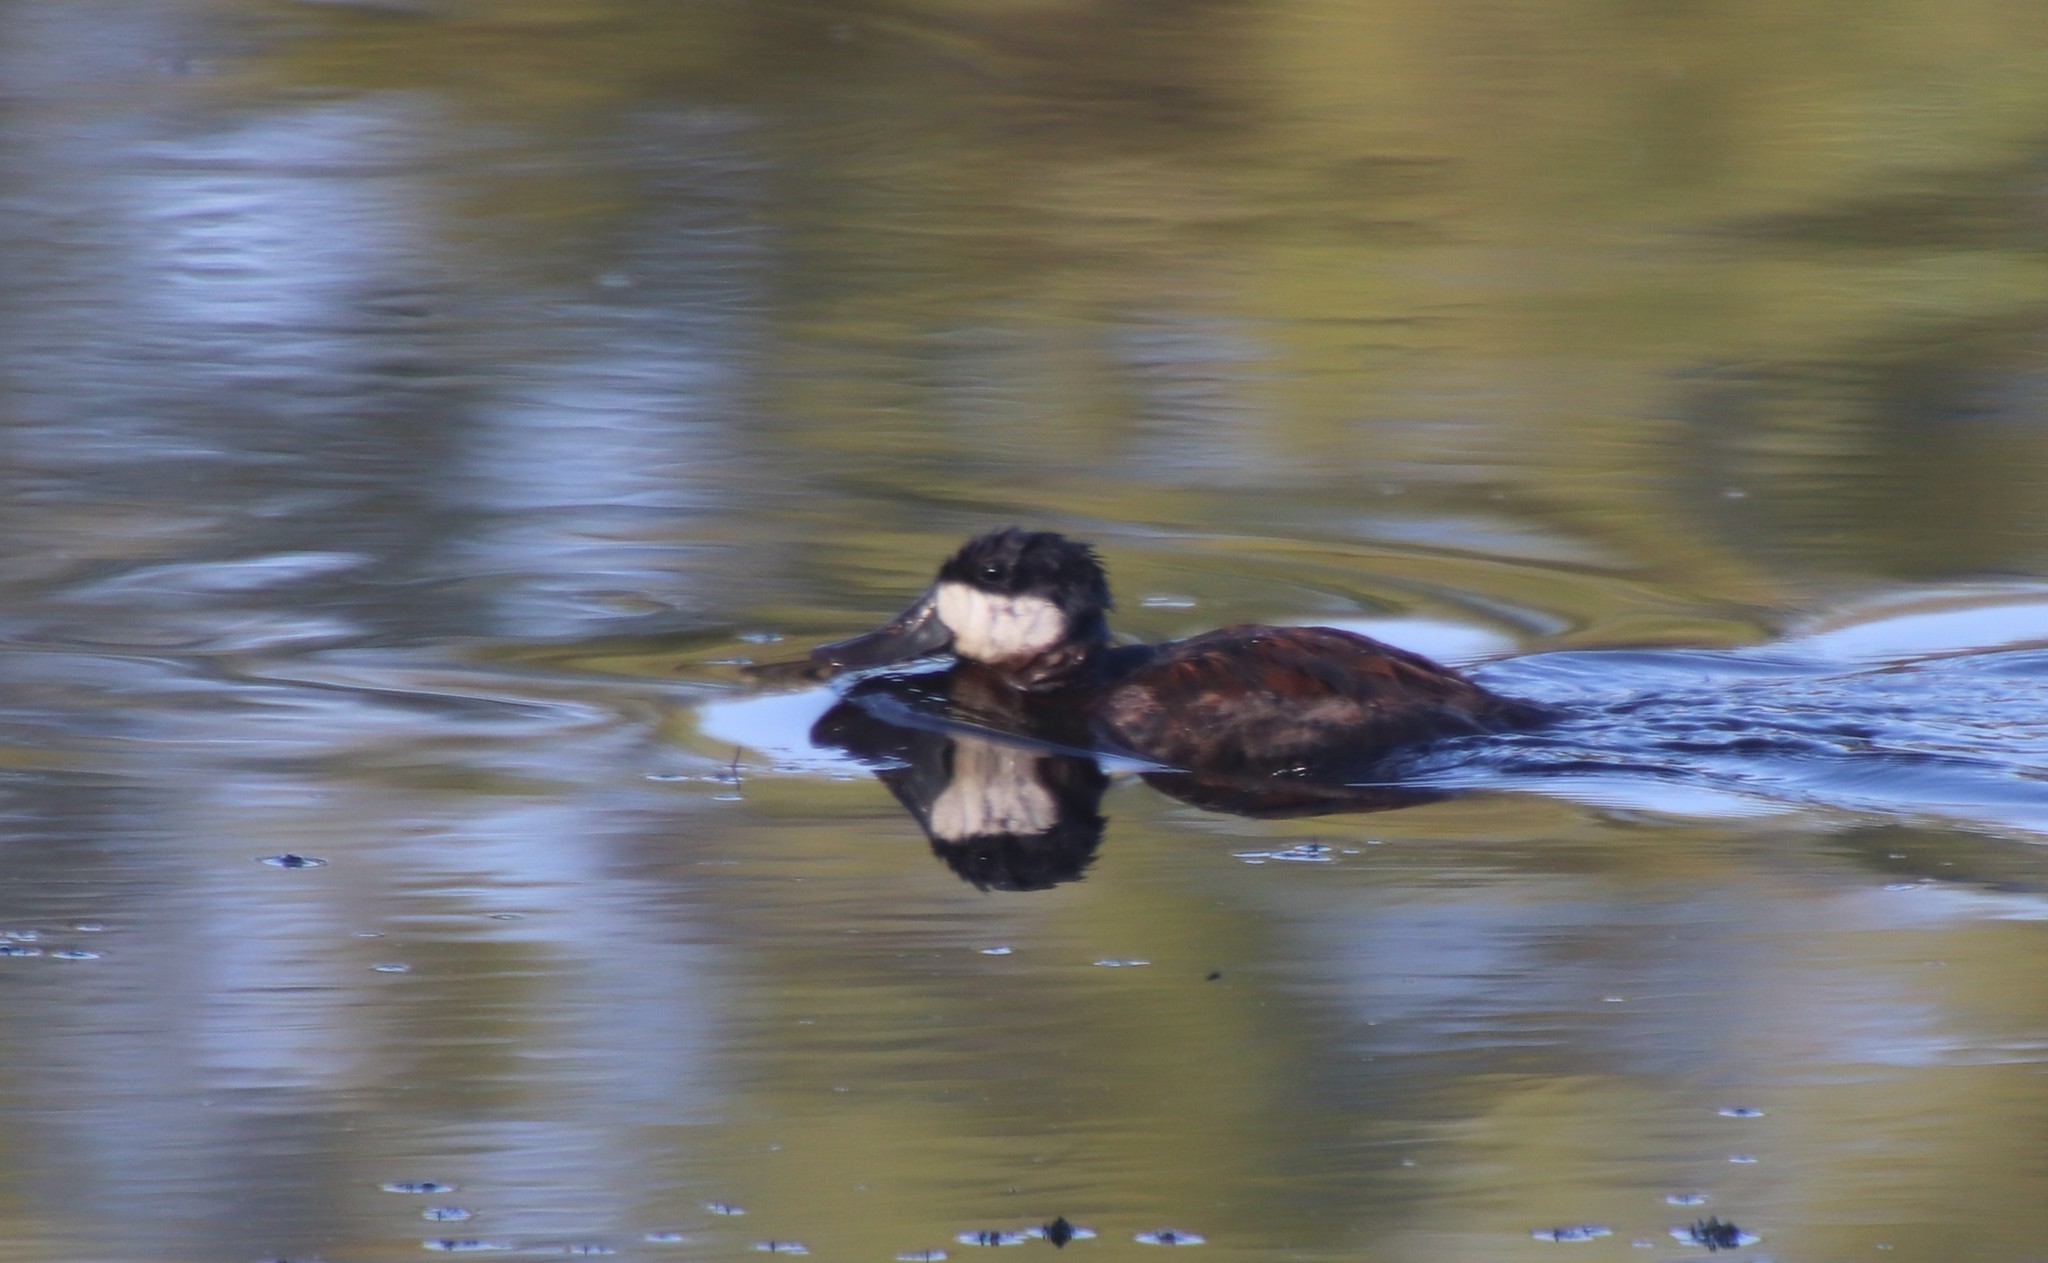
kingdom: Animalia
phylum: Chordata
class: Aves
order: Anseriformes
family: Anatidae
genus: Oxyura
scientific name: Oxyura jamaicensis
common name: Ruddy duck
